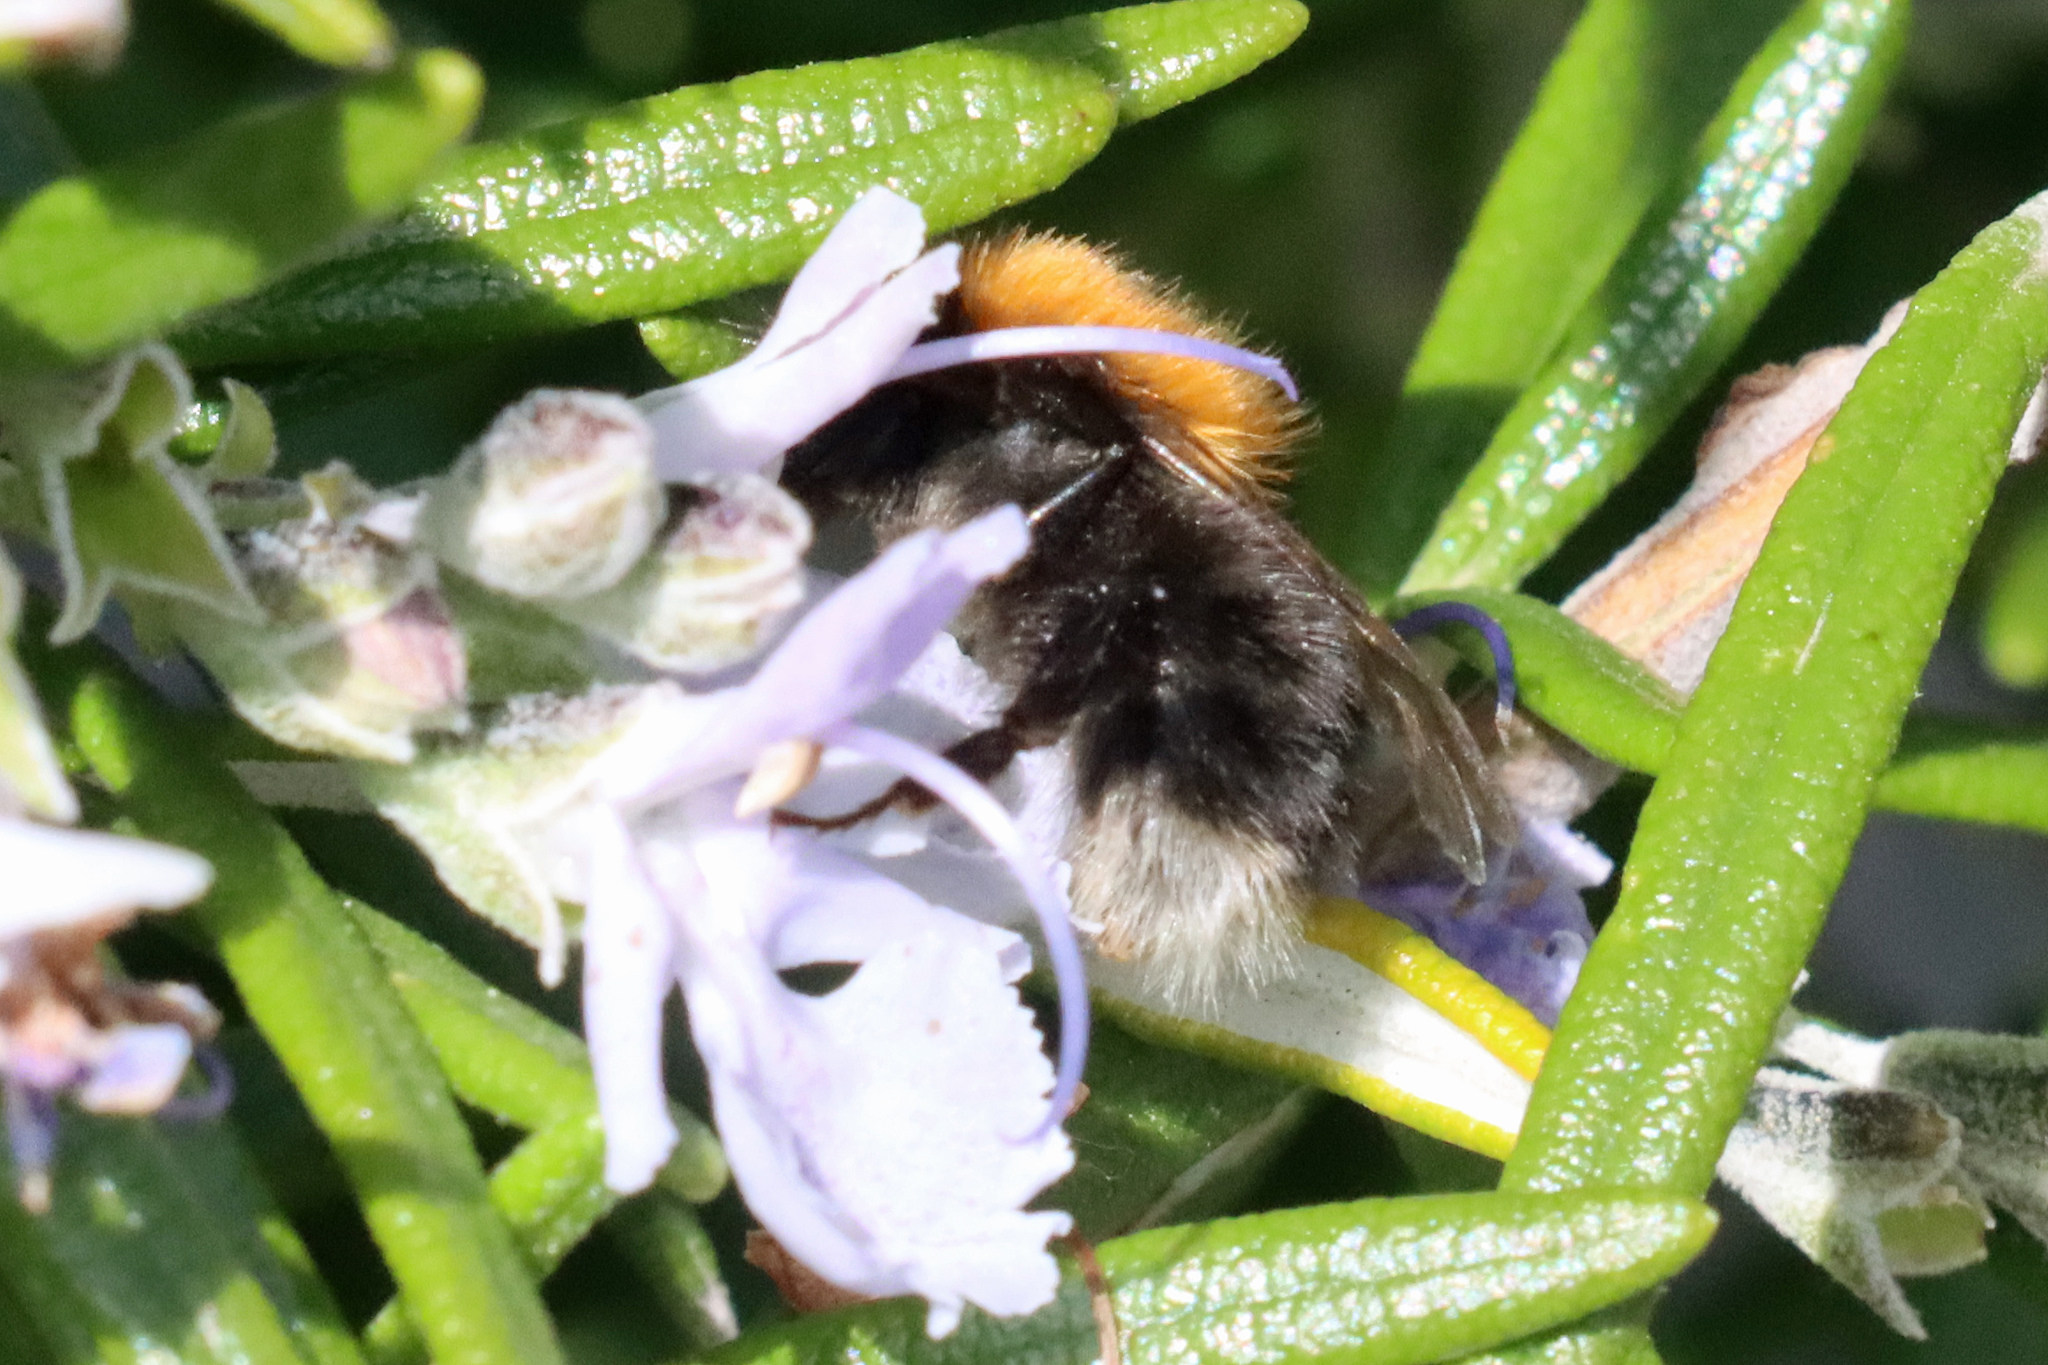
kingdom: Animalia
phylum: Arthropoda
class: Insecta
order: Hymenoptera
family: Apidae
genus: Bombus
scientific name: Bombus hypnorum
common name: New garden bumblebee
